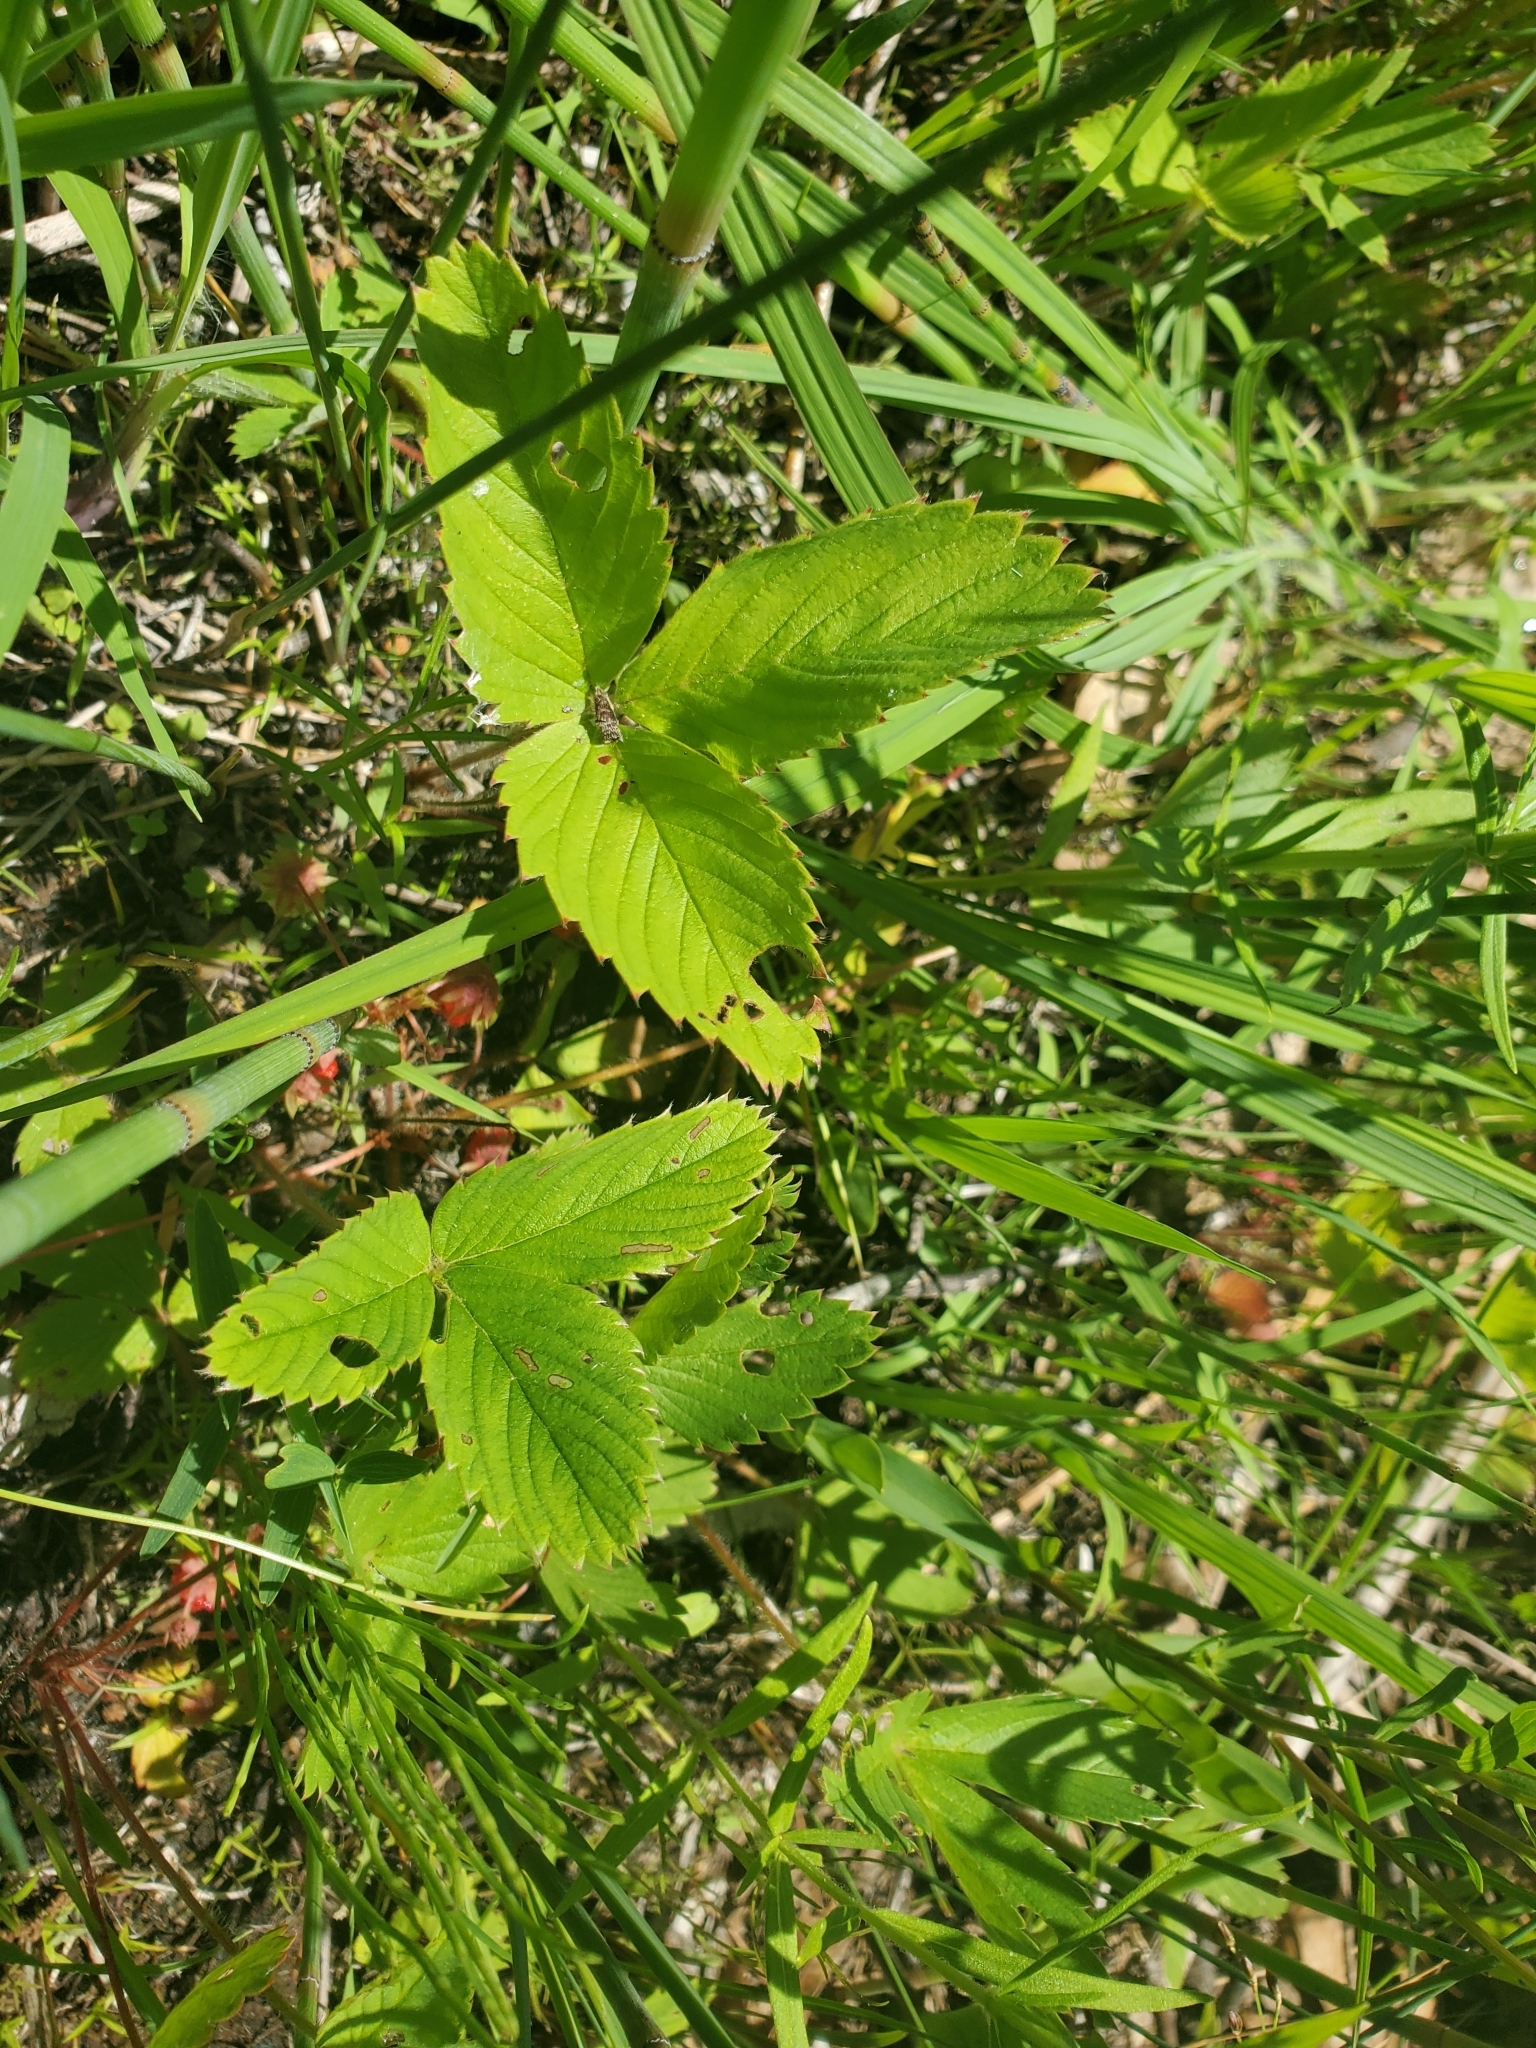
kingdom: Plantae
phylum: Tracheophyta
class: Magnoliopsida
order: Rosales
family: Rosaceae
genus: Fragaria
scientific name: Fragaria virginiana
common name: Thickleaved wild strawberry
